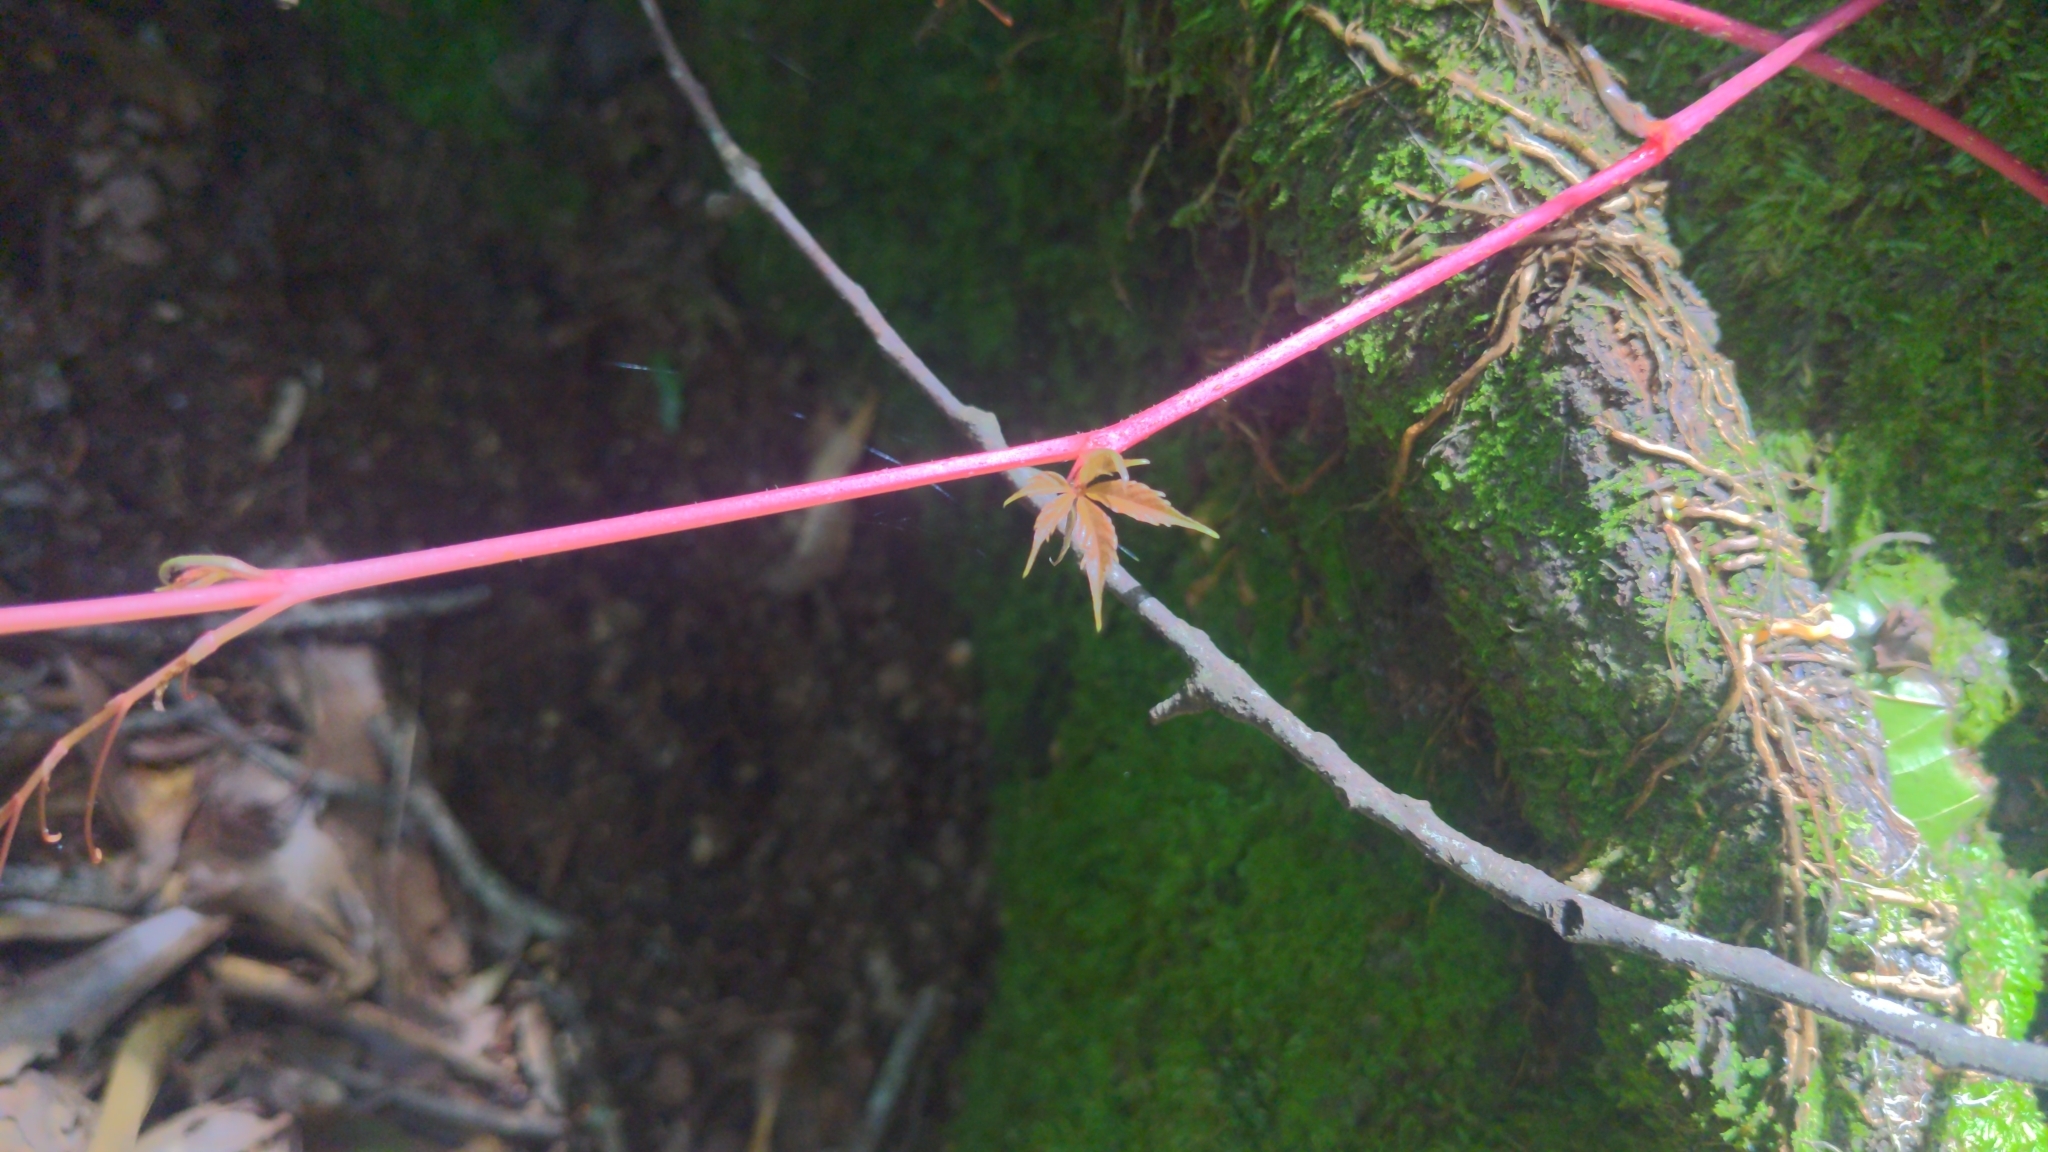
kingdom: Plantae
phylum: Tracheophyta
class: Magnoliopsida
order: Vitales
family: Vitaceae
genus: Parthenocissus
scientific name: Parthenocissus quinquefolia
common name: Virginia-creeper
